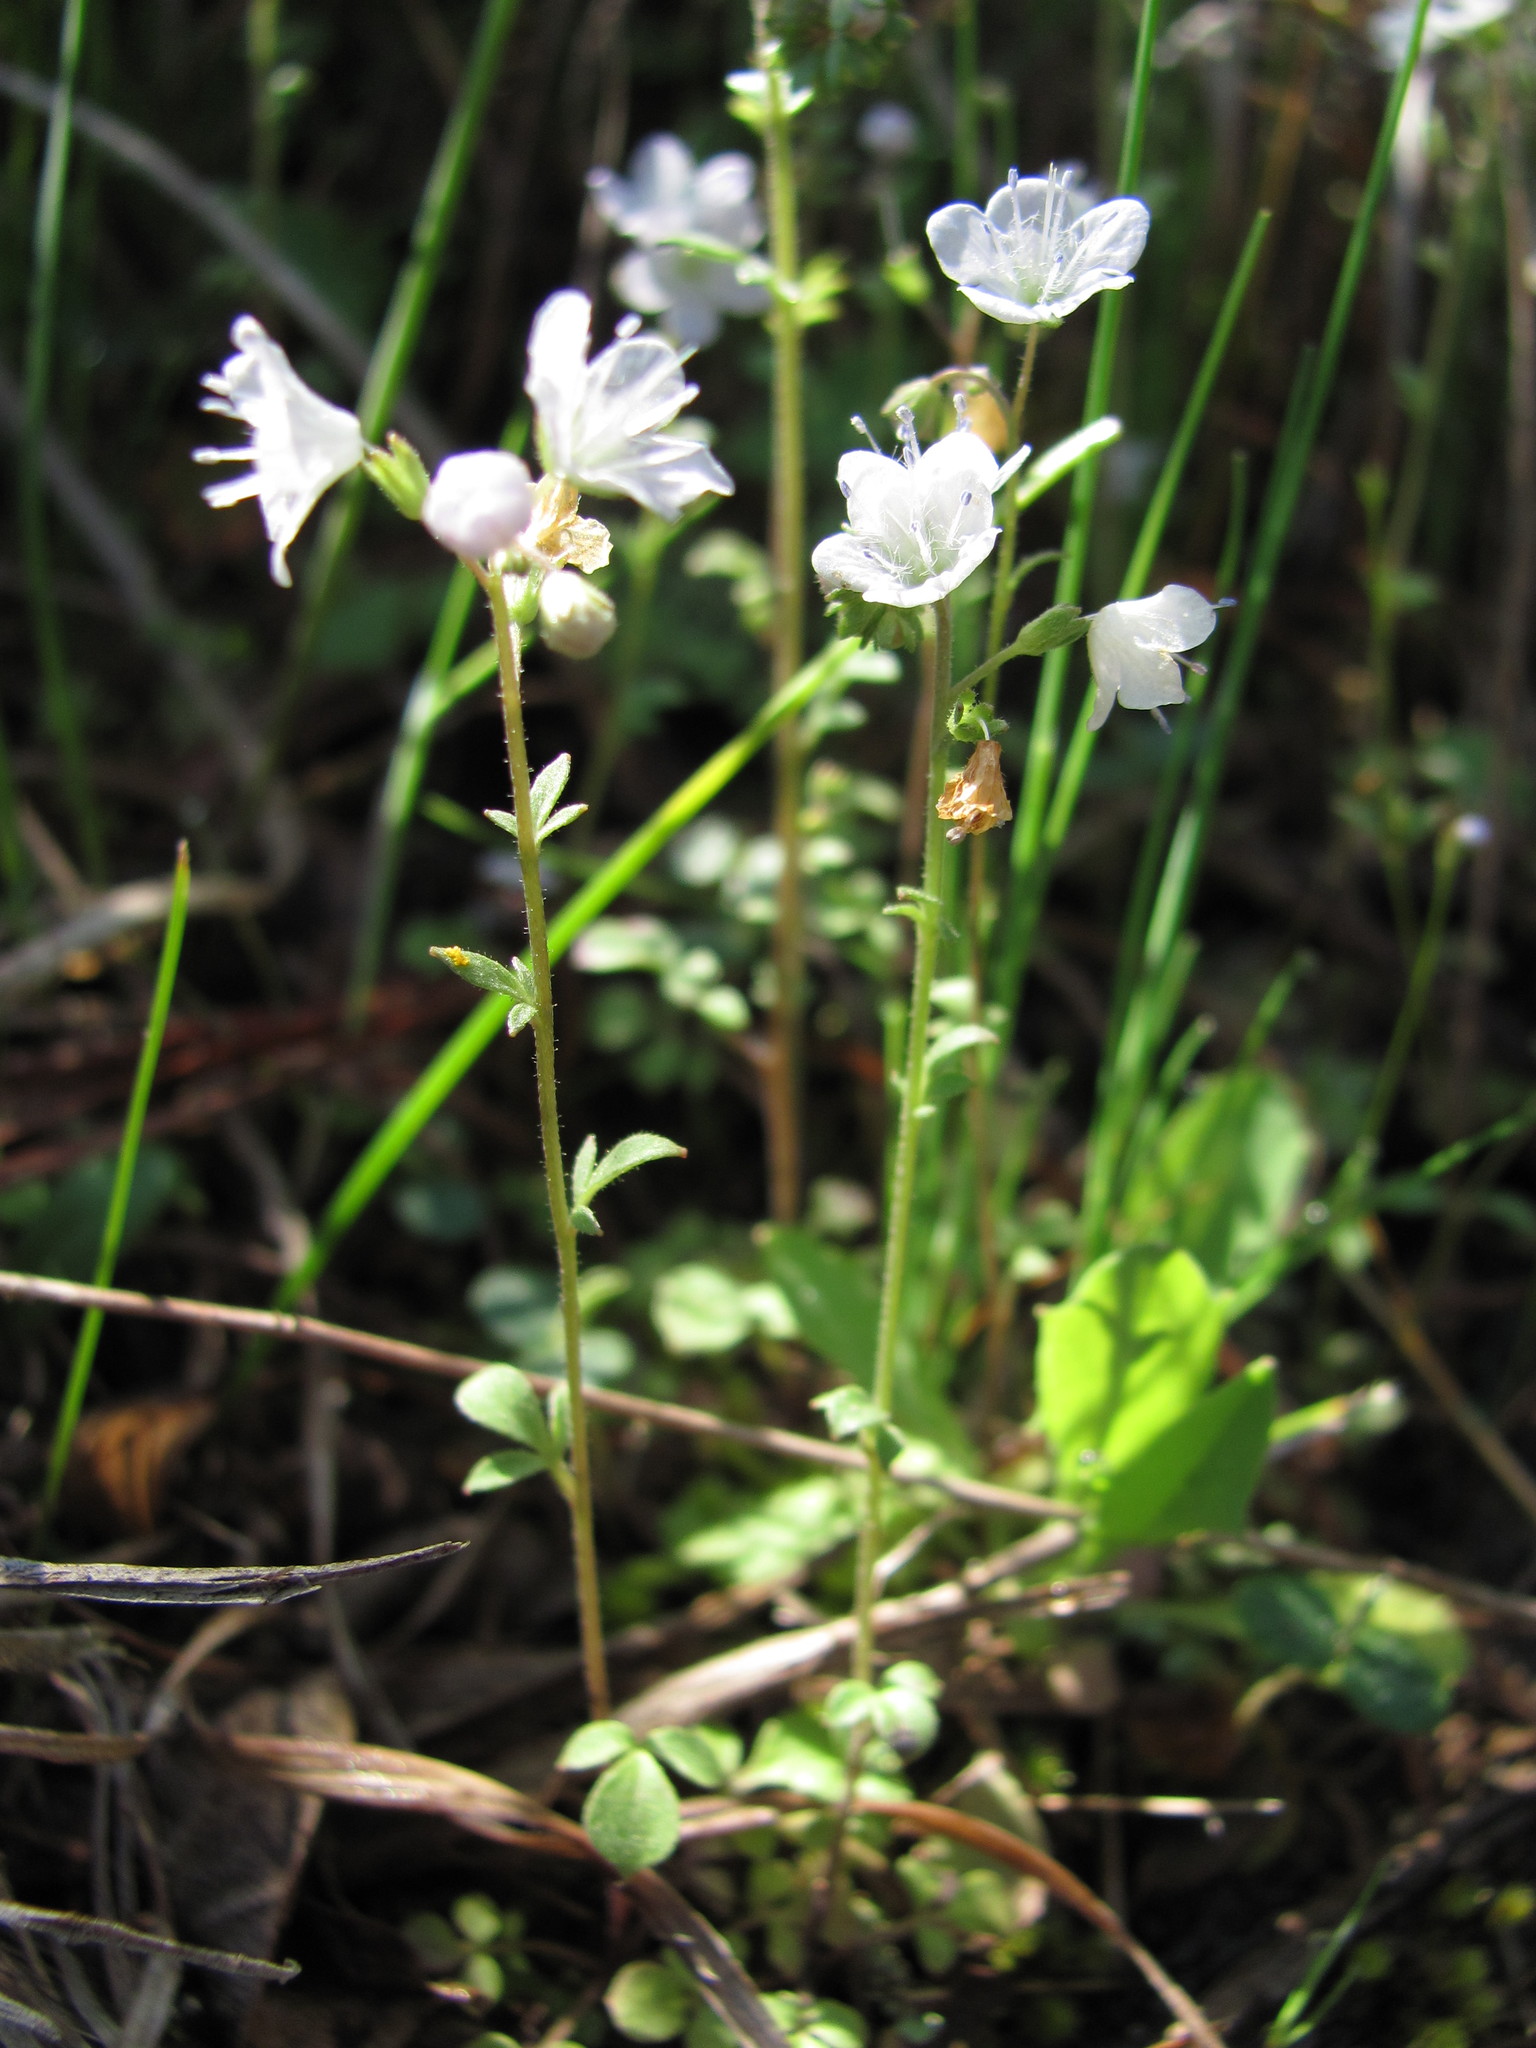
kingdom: Plantae
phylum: Tracheophyta
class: Magnoliopsida
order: Boraginales
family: Hydrophyllaceae
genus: Phacelia
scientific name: Phacelia dubia
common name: Appalachian phacelia
